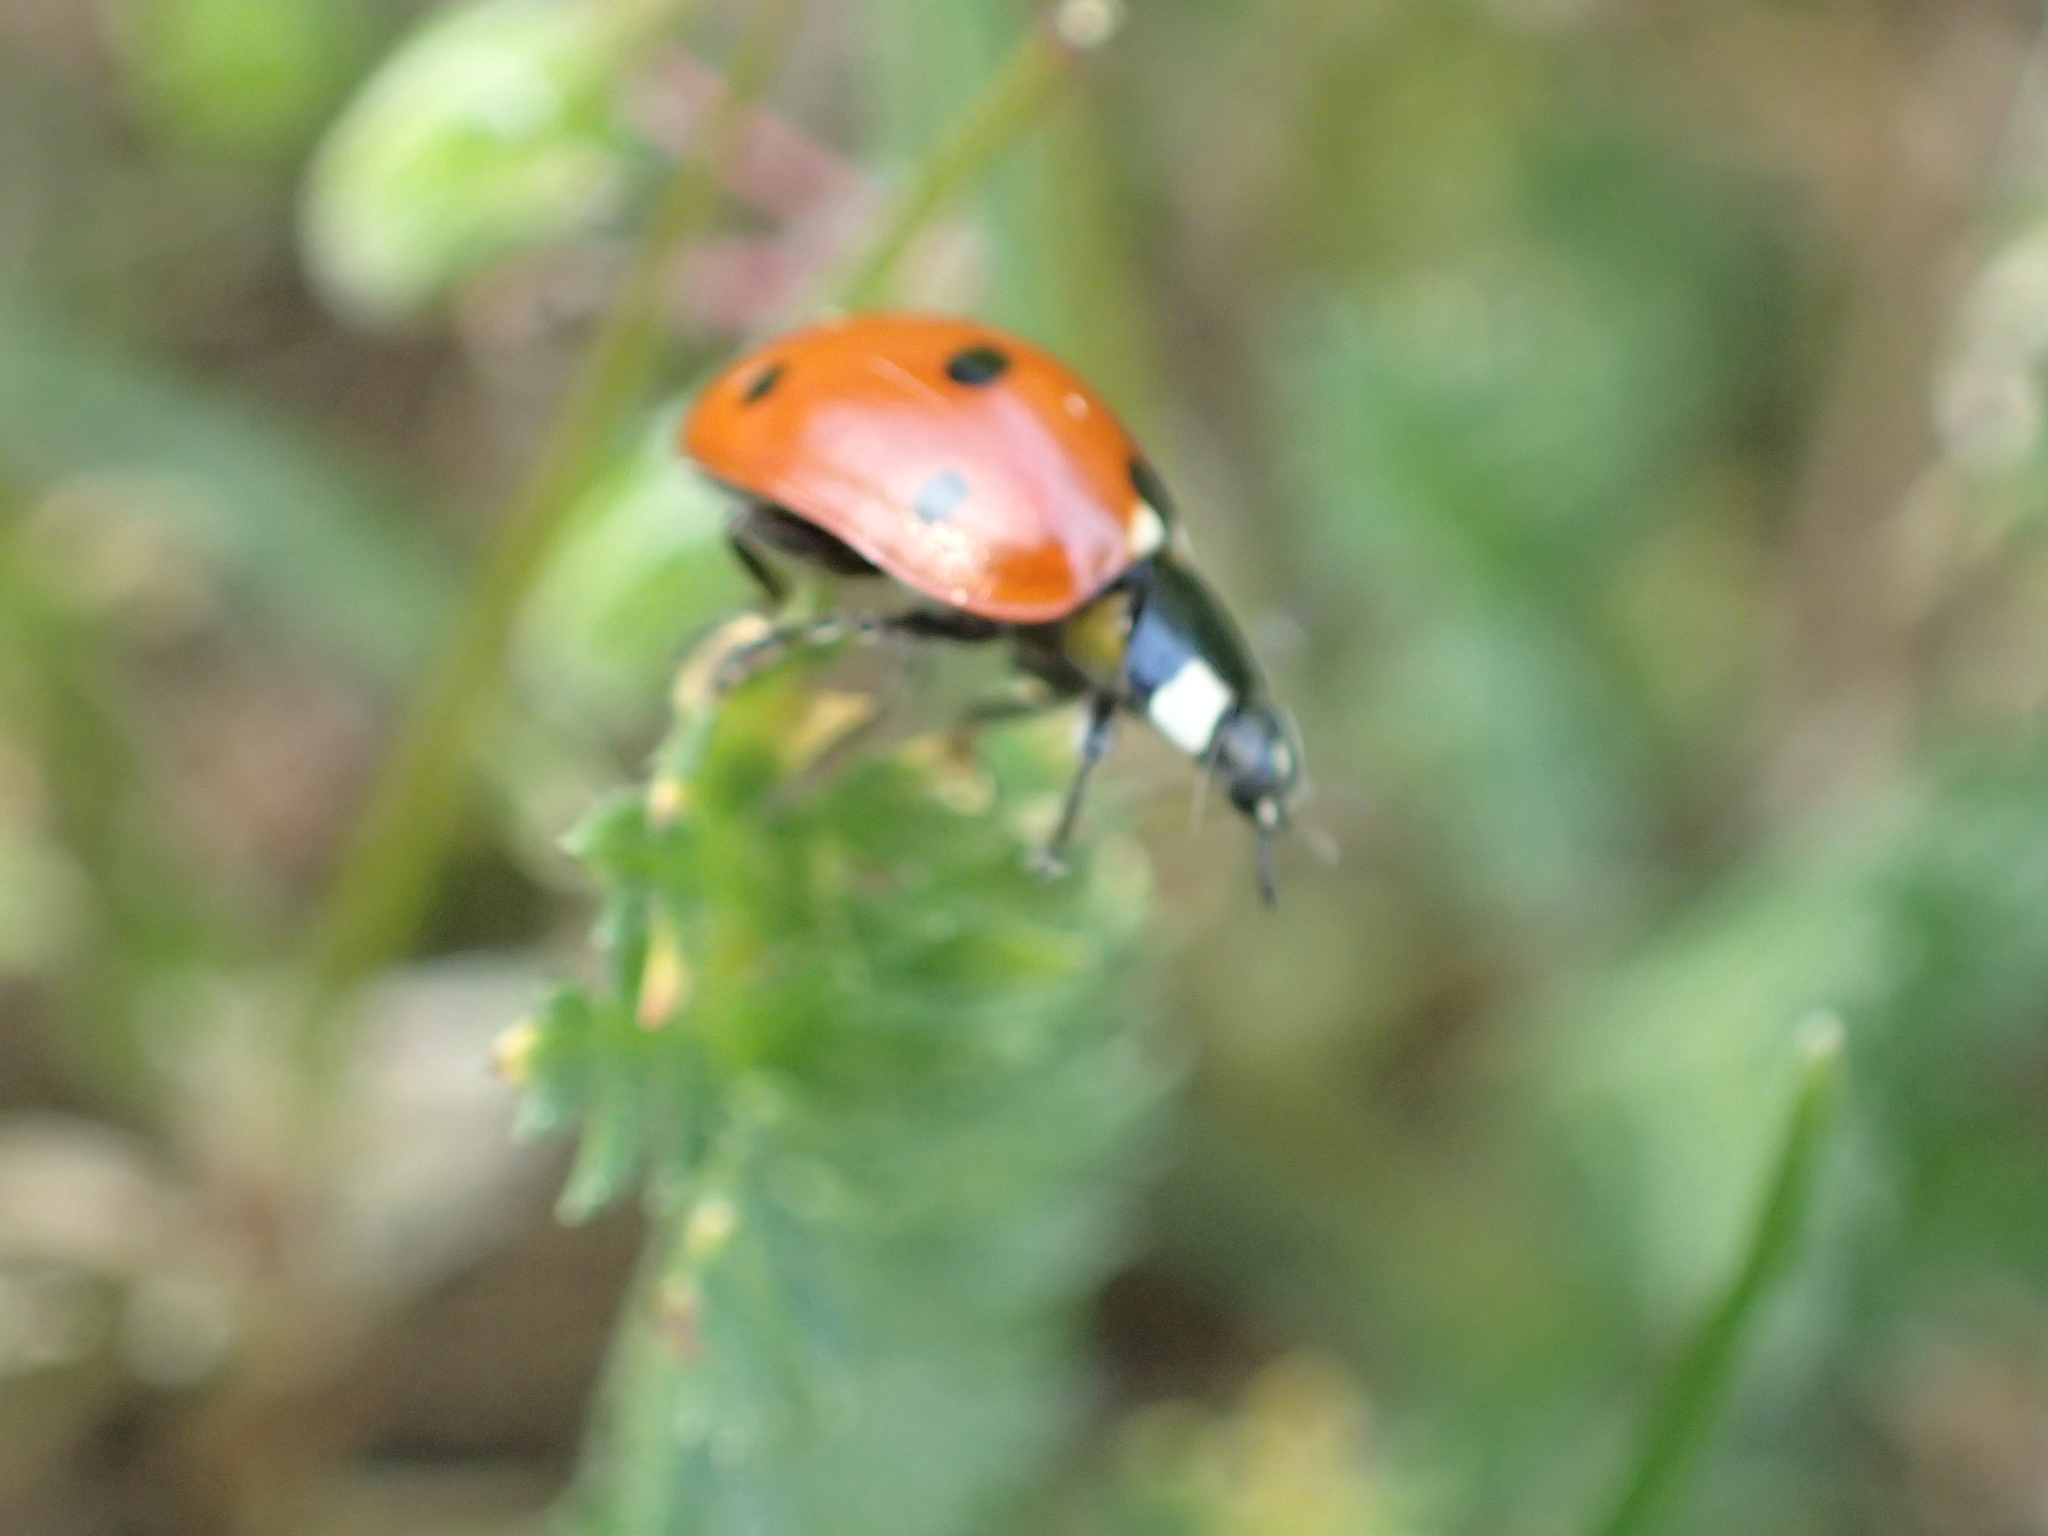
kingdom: Animalia
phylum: Arthropoda
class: Insecta
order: Coleoptera
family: Coccinellidae
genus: Coccinella
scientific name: Coccinella septempunctata
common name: Sevenspotted lady beetle
